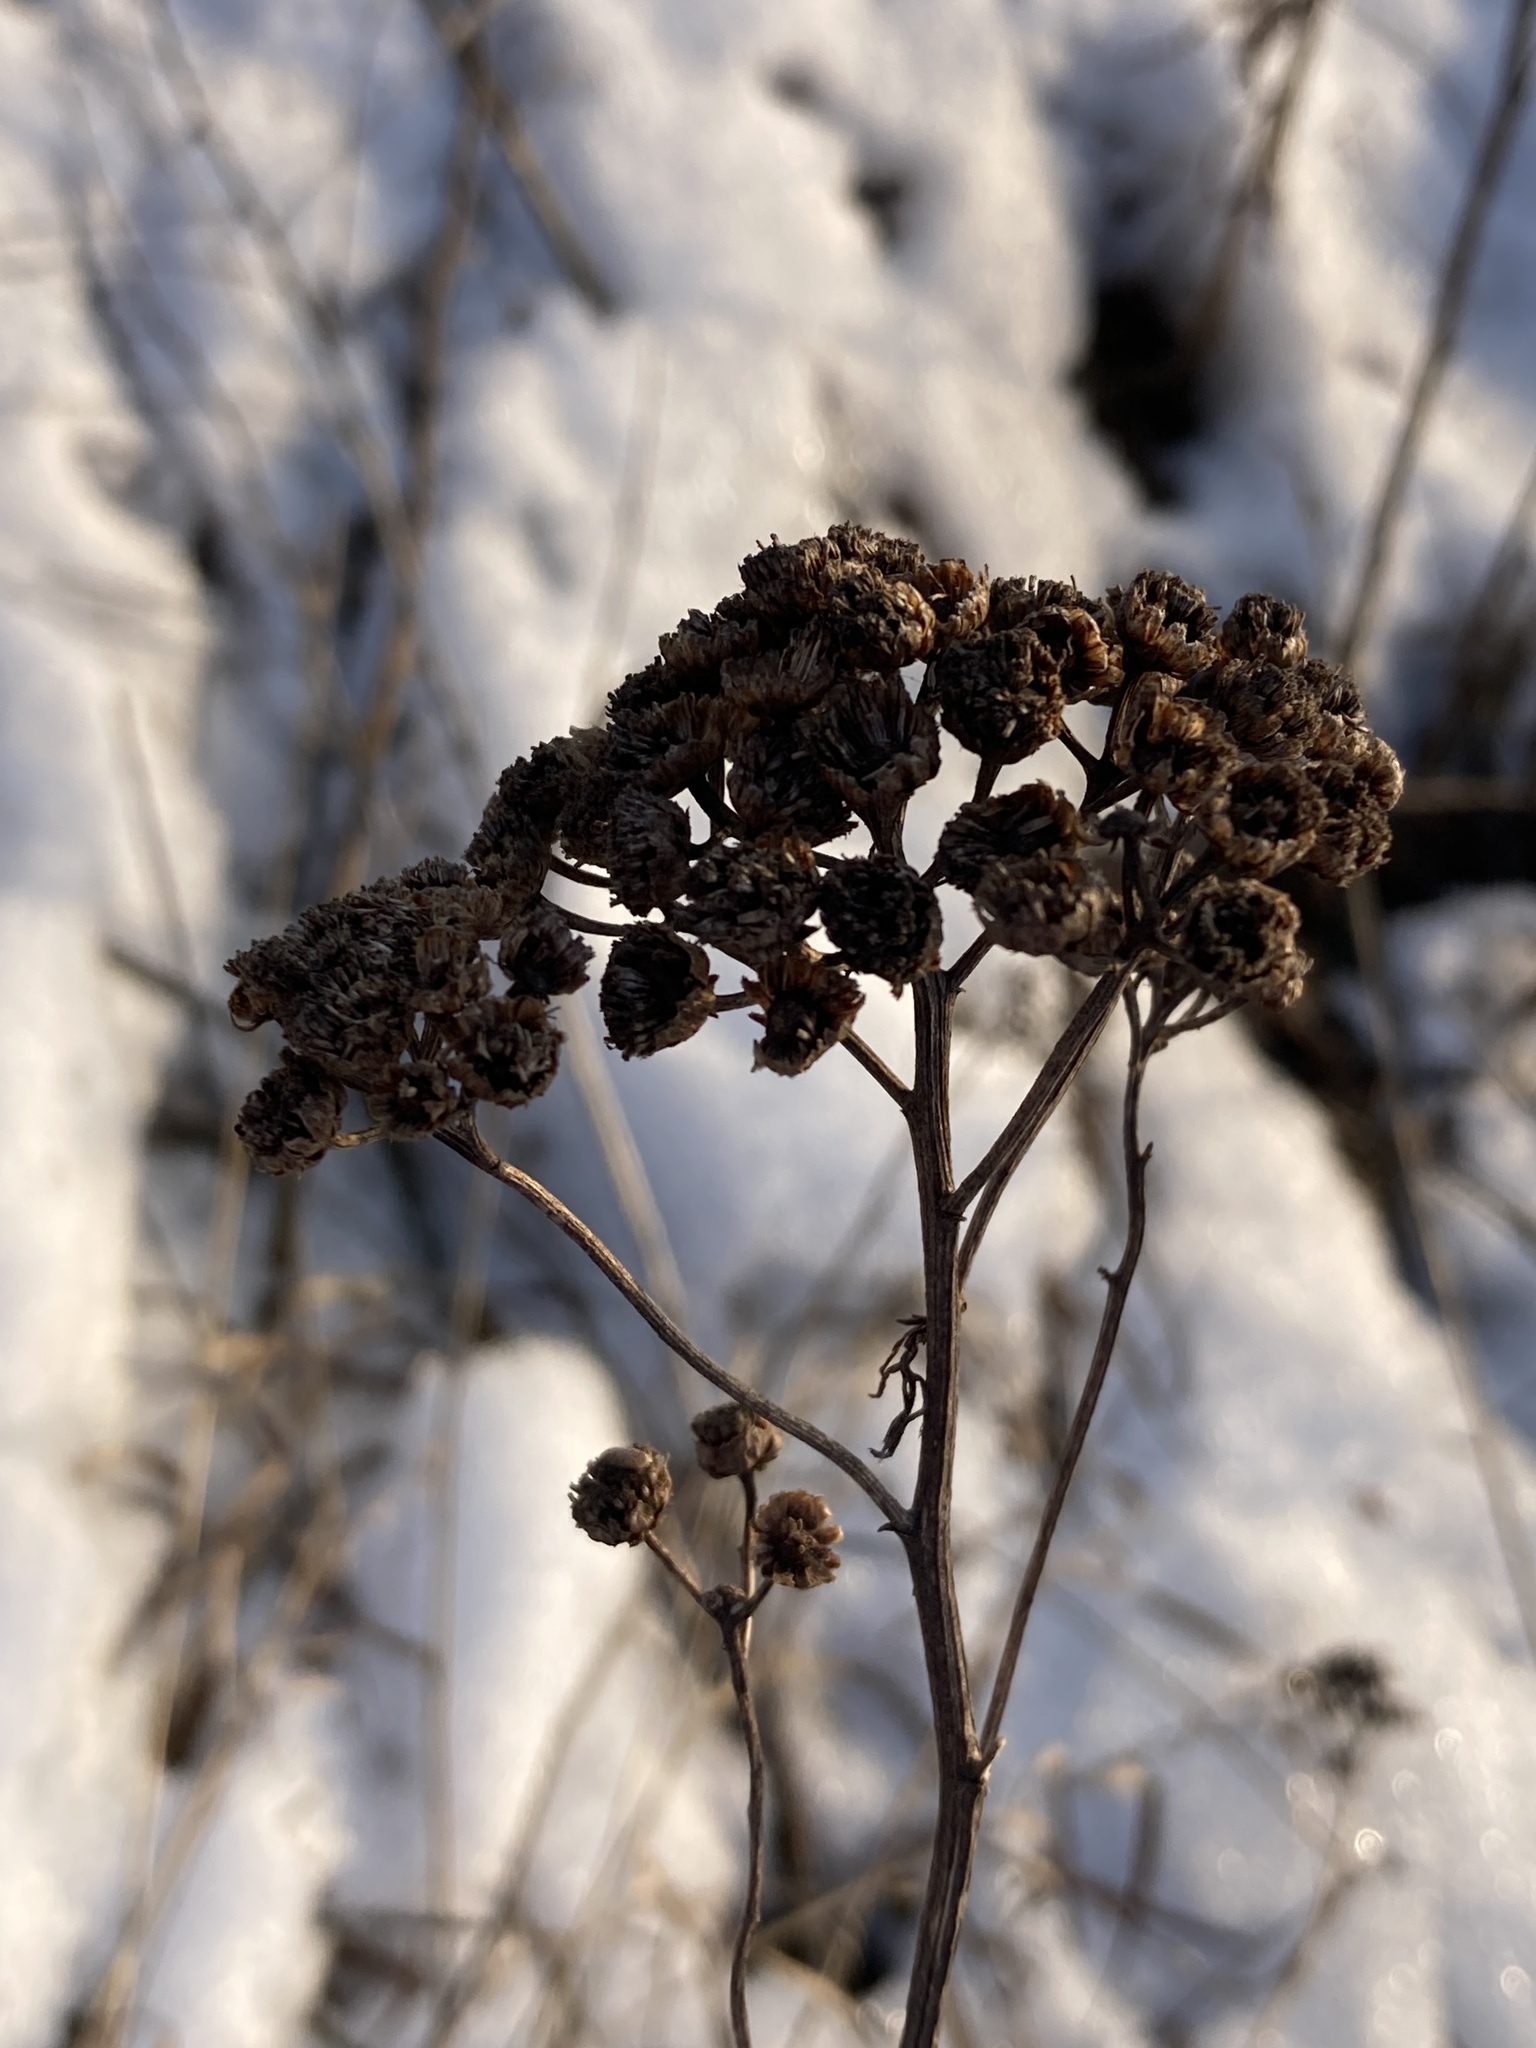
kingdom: Plantae
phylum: Tracheophyta
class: Magnoliopsida
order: Asterales
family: Asteraceae
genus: Tanacetum
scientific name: Tanacetum vulgare
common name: Common tansy
